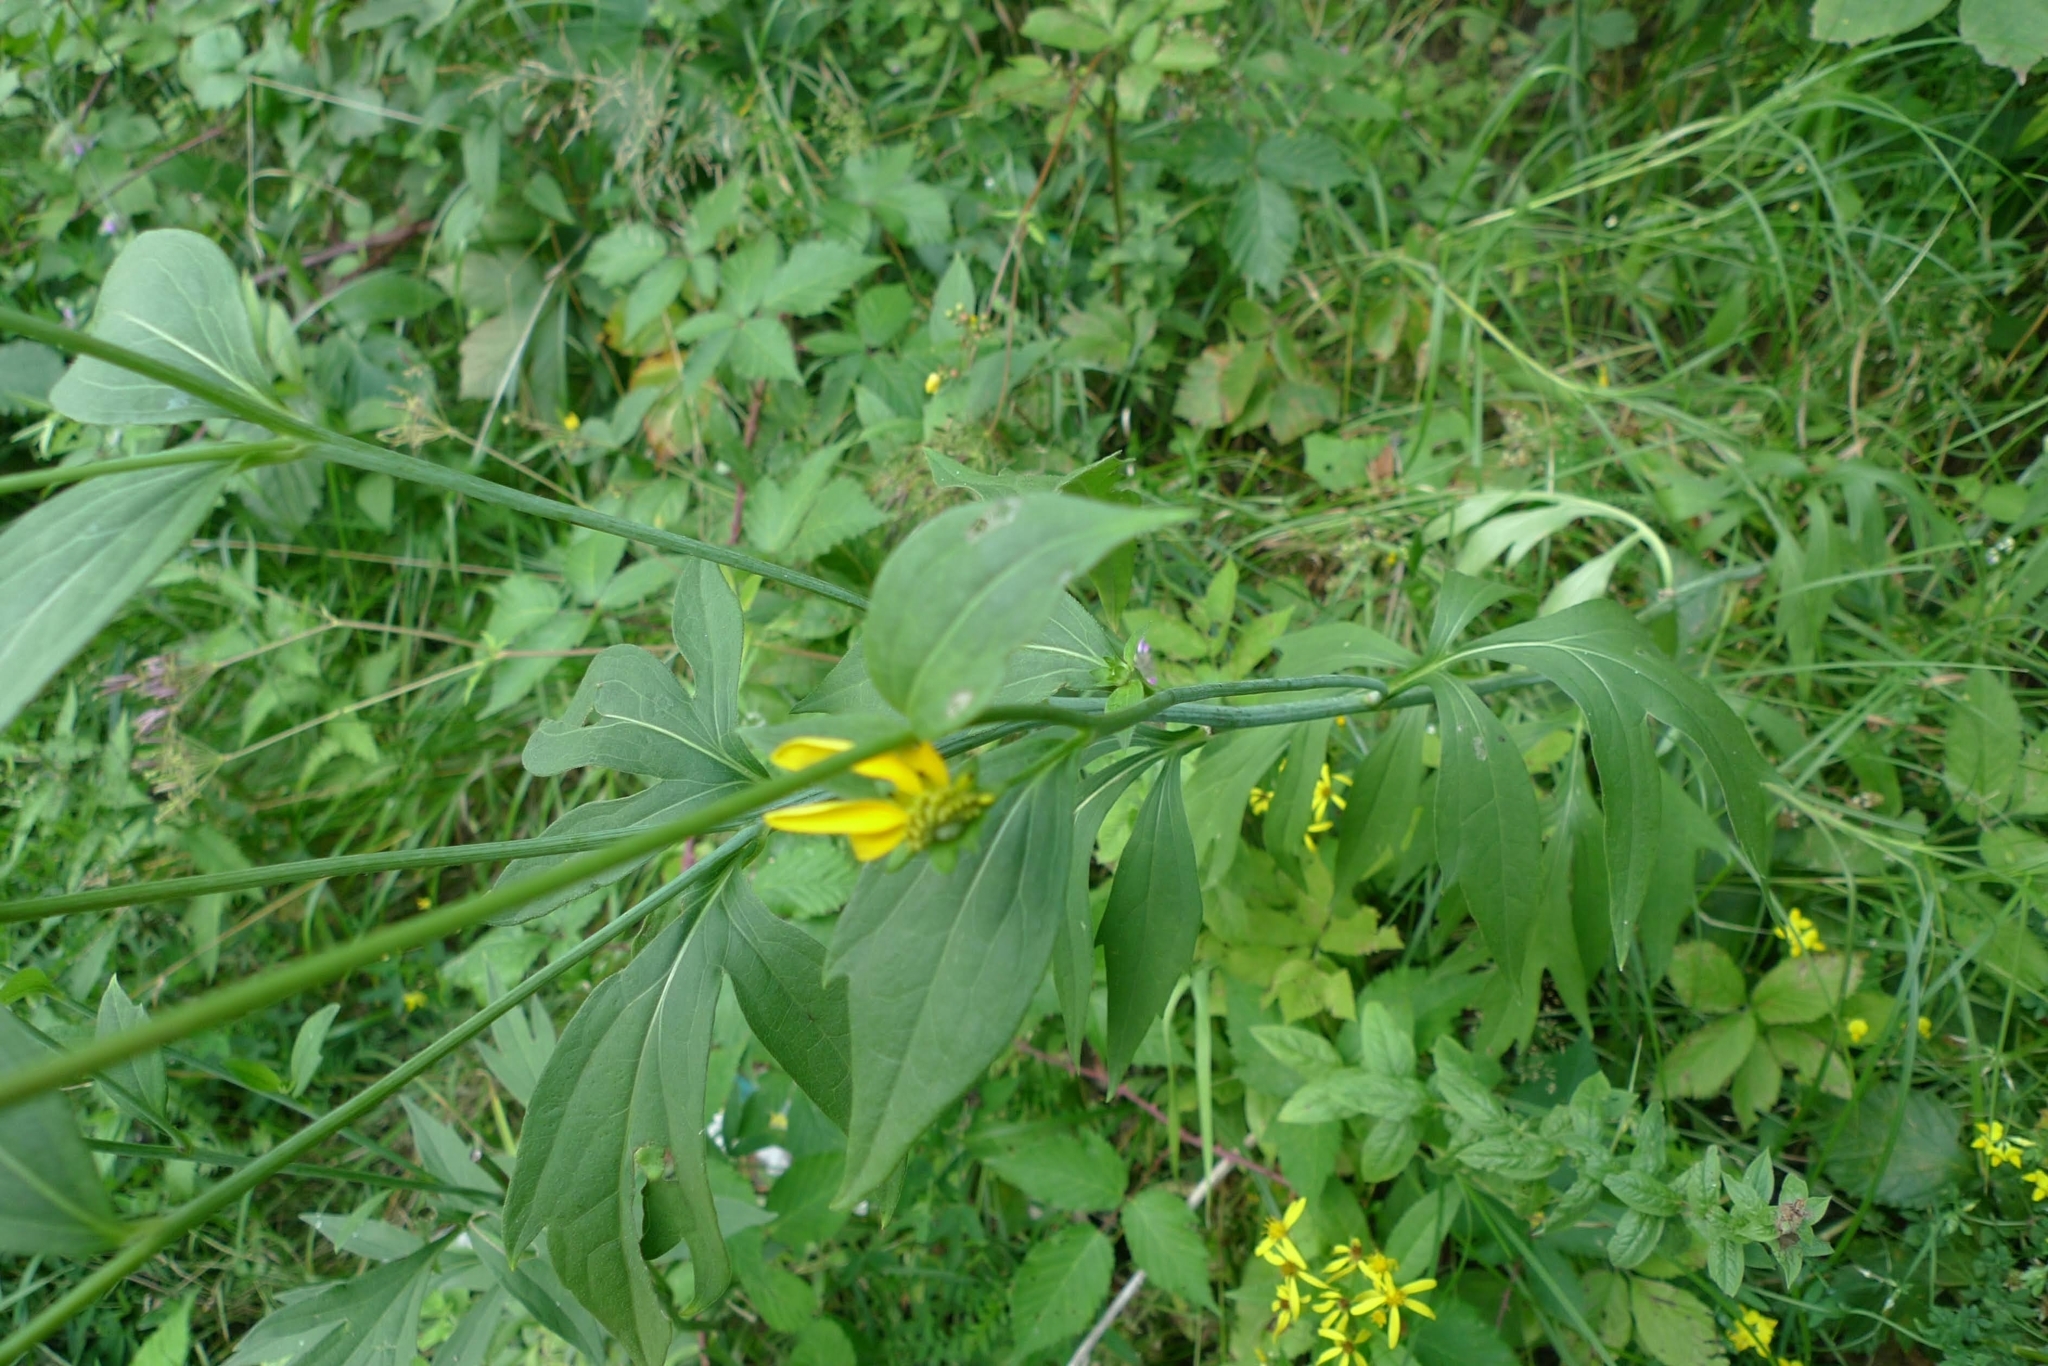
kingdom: Plantae
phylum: Tracheophyta
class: Magnoliopsida
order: Asterales
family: Asteraceae
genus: Rudbeckia
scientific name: Rudbeckia laciniata
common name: Coneflower
